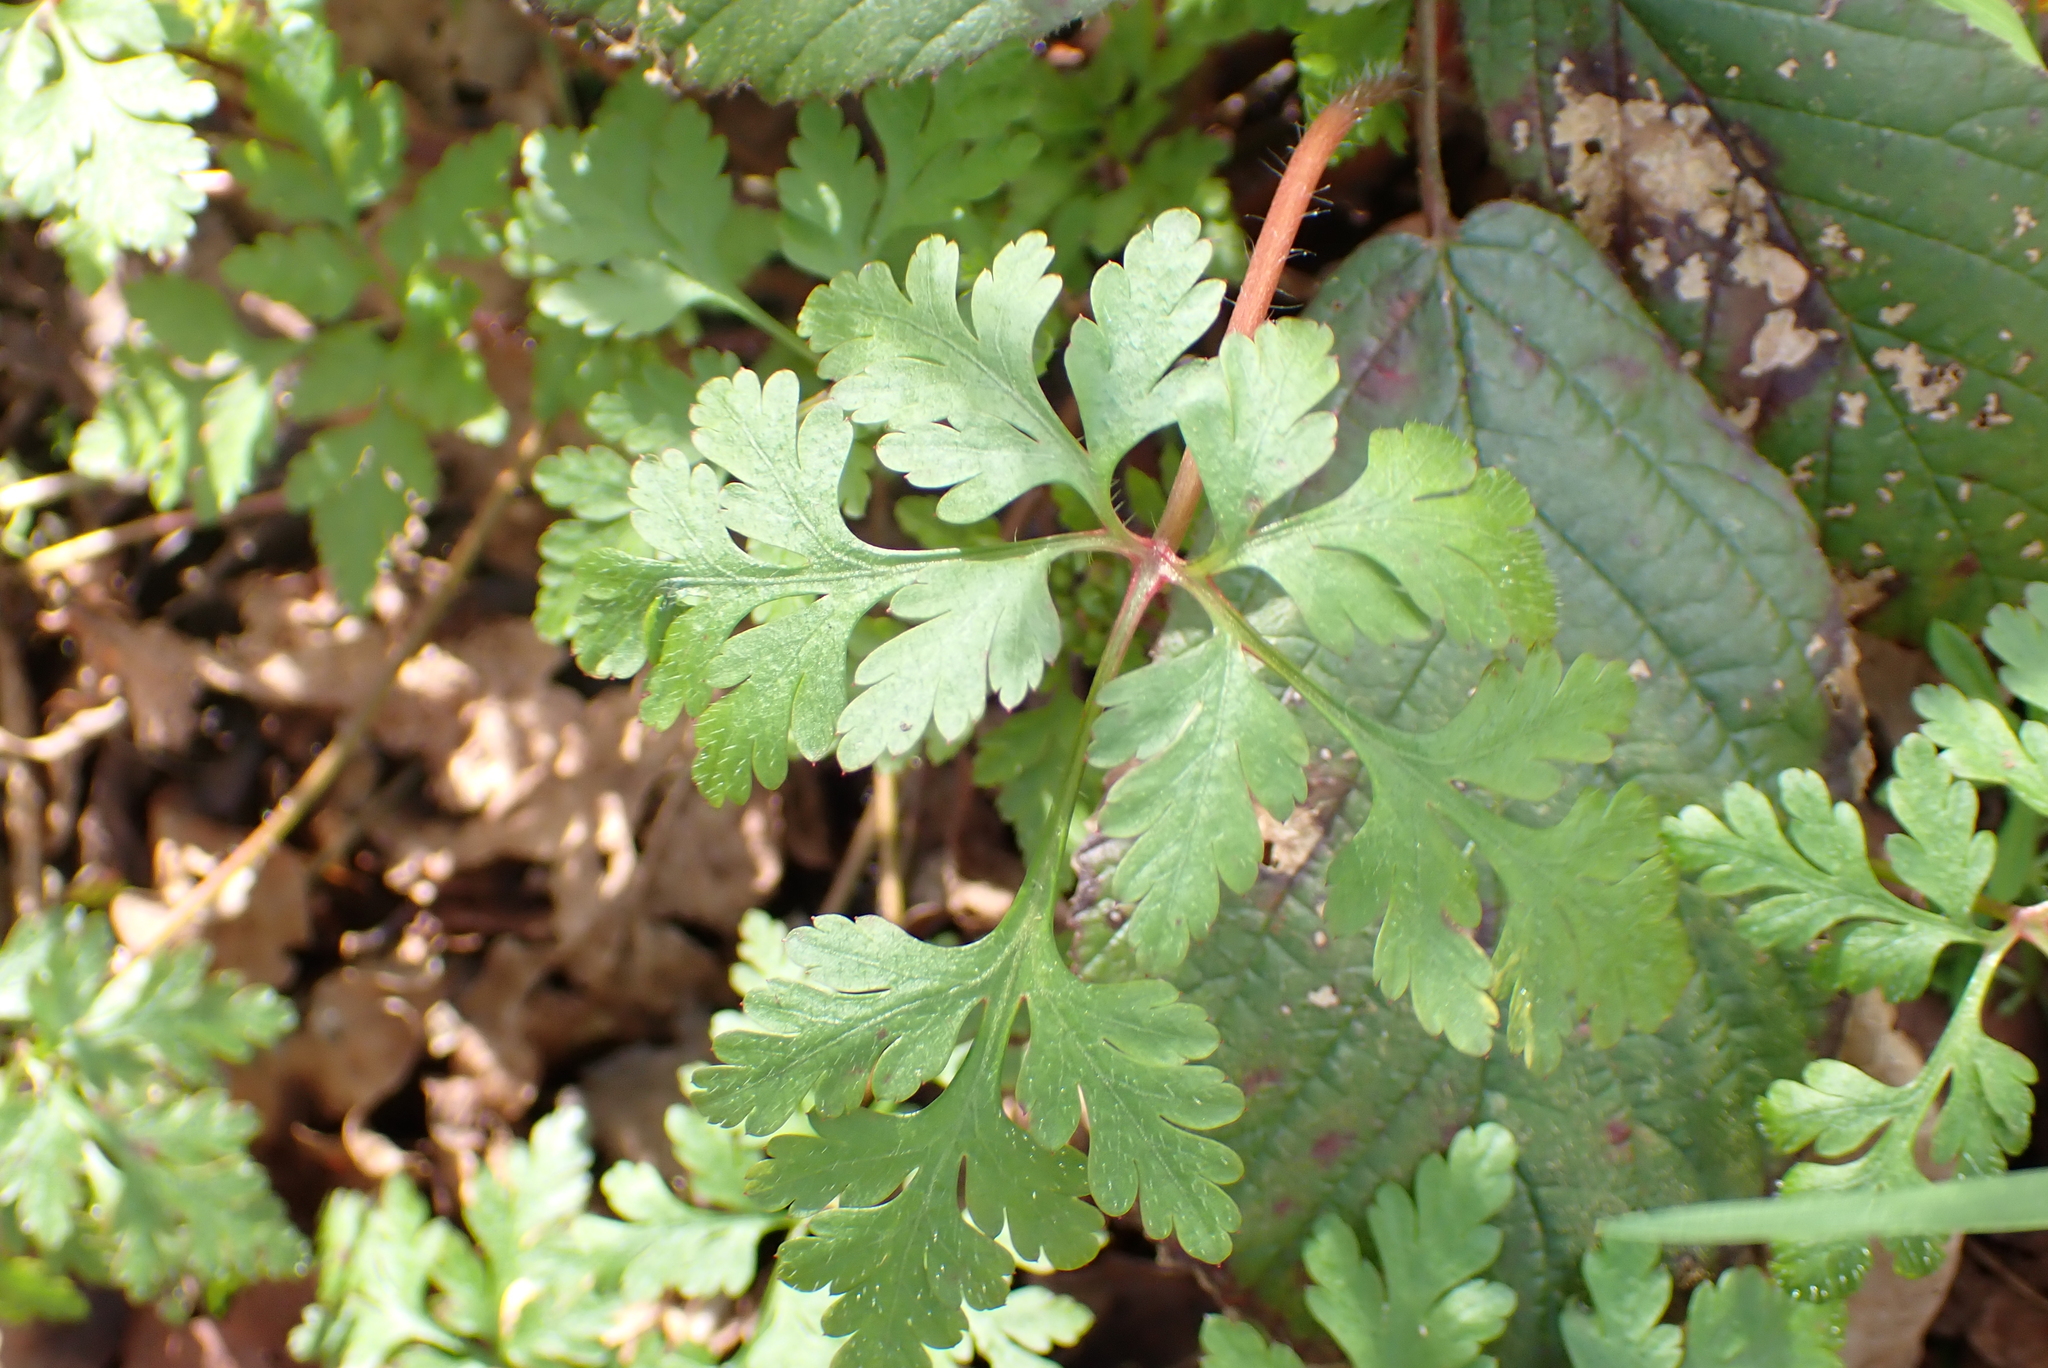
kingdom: Plantae
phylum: Tracheophyta
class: Magnoliopsida
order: Geraniales
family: Geraniaceae
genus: Geranium
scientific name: Geranium robertianum
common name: Herb-robert
